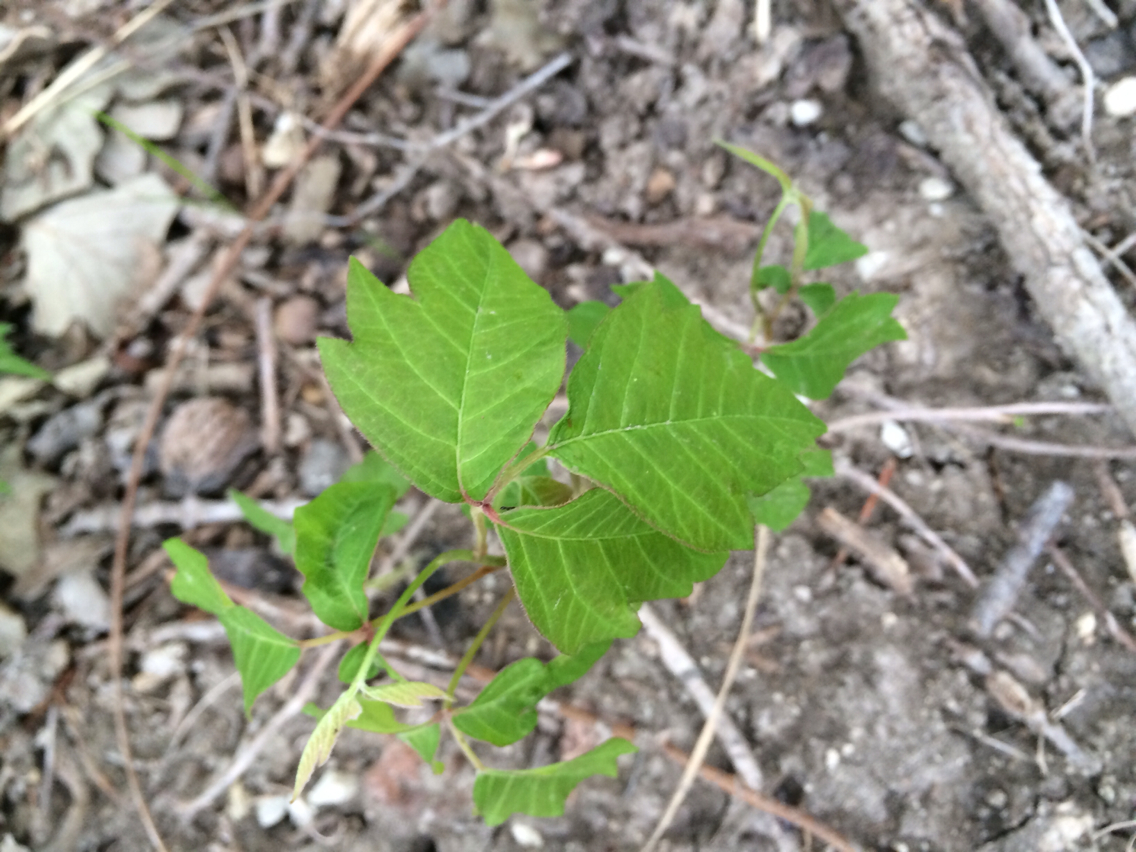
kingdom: Plantae
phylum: Tracheophyta
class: Magnoliopsida
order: Sapindales
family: Anacardiaceae
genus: Toxicodendron
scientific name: Toxicodendron radicans
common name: Poison ivy
